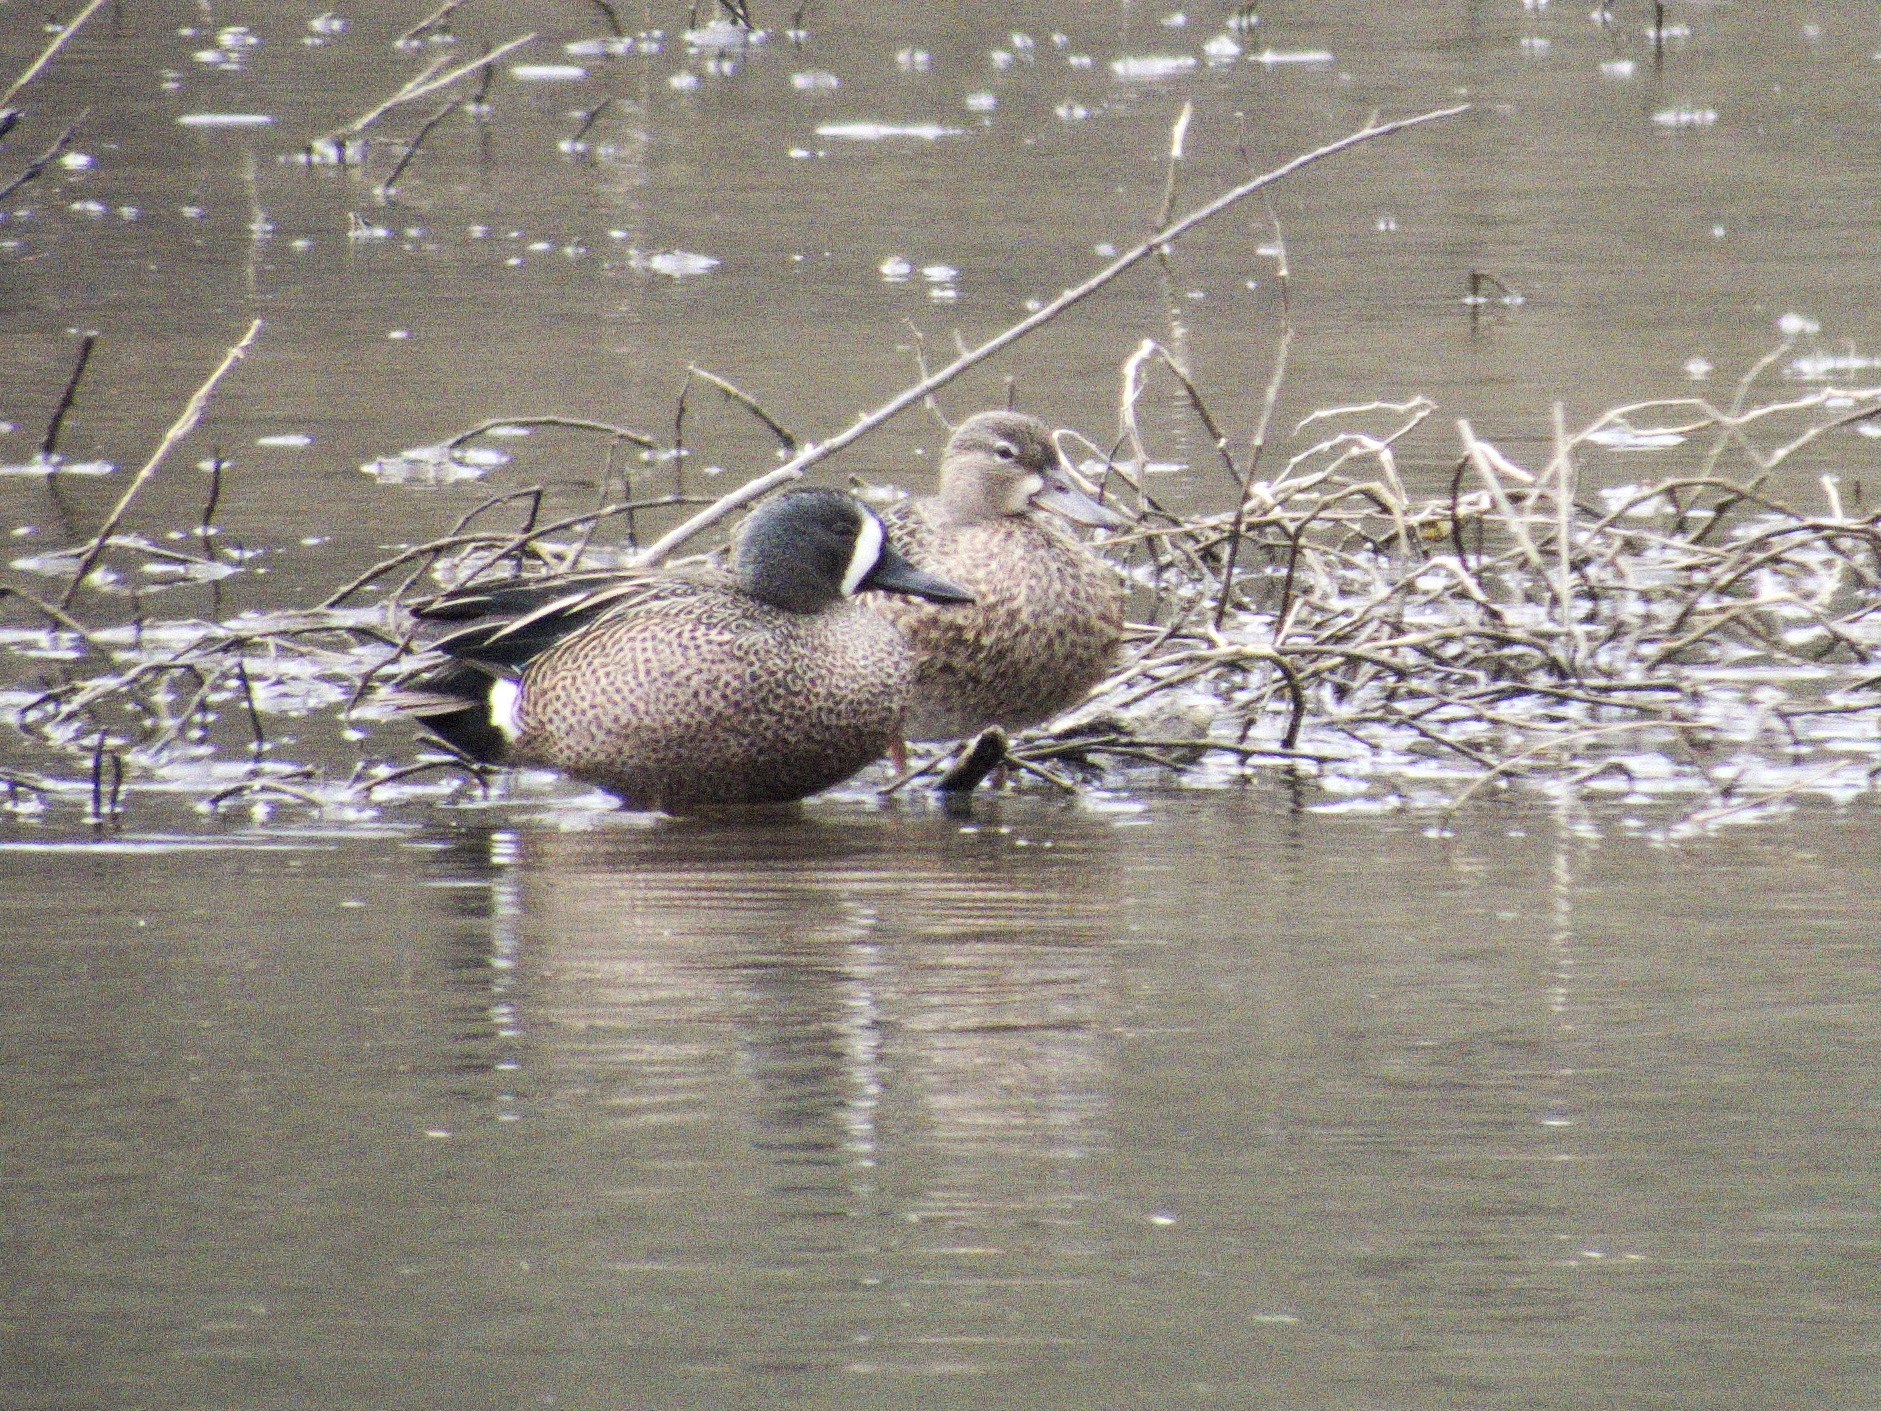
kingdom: Animalia
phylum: Chordata
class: Aves
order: Anseriformes
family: Anatidae
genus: Spatula
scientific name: Spatula discors
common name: Blue-winged teal
